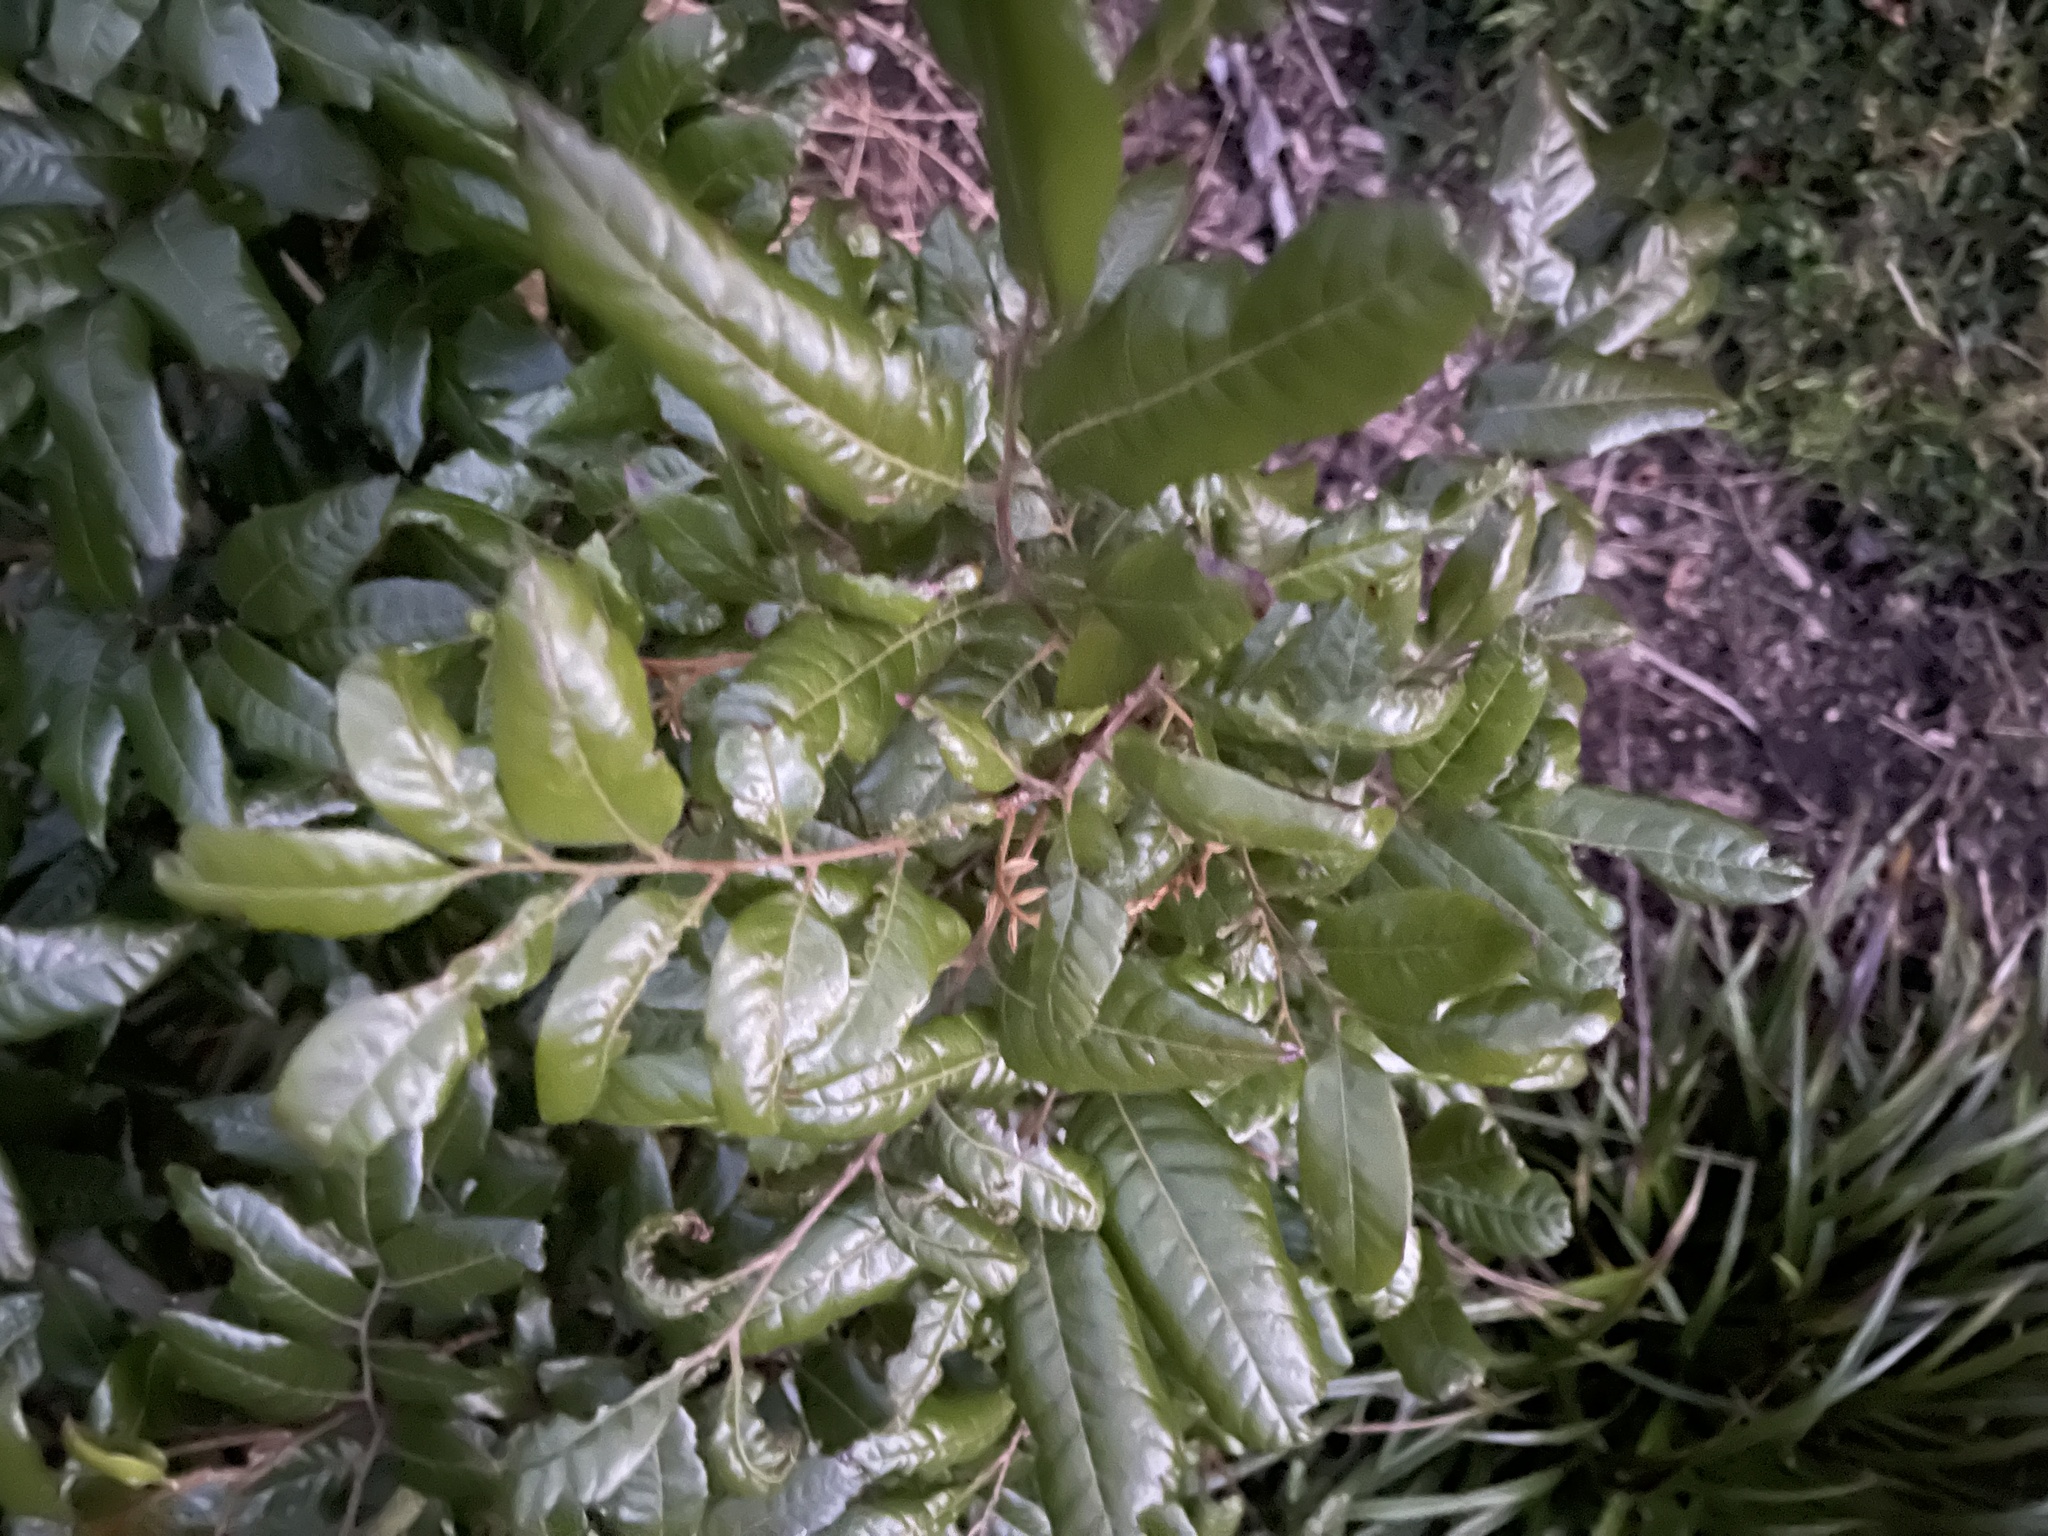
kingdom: Plantae
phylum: Tracheophyta
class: Magnoliopsida
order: Sapindales
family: Sapindaceae
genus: Alectryon
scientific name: Alectryon excelsus
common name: Three kings titoki
